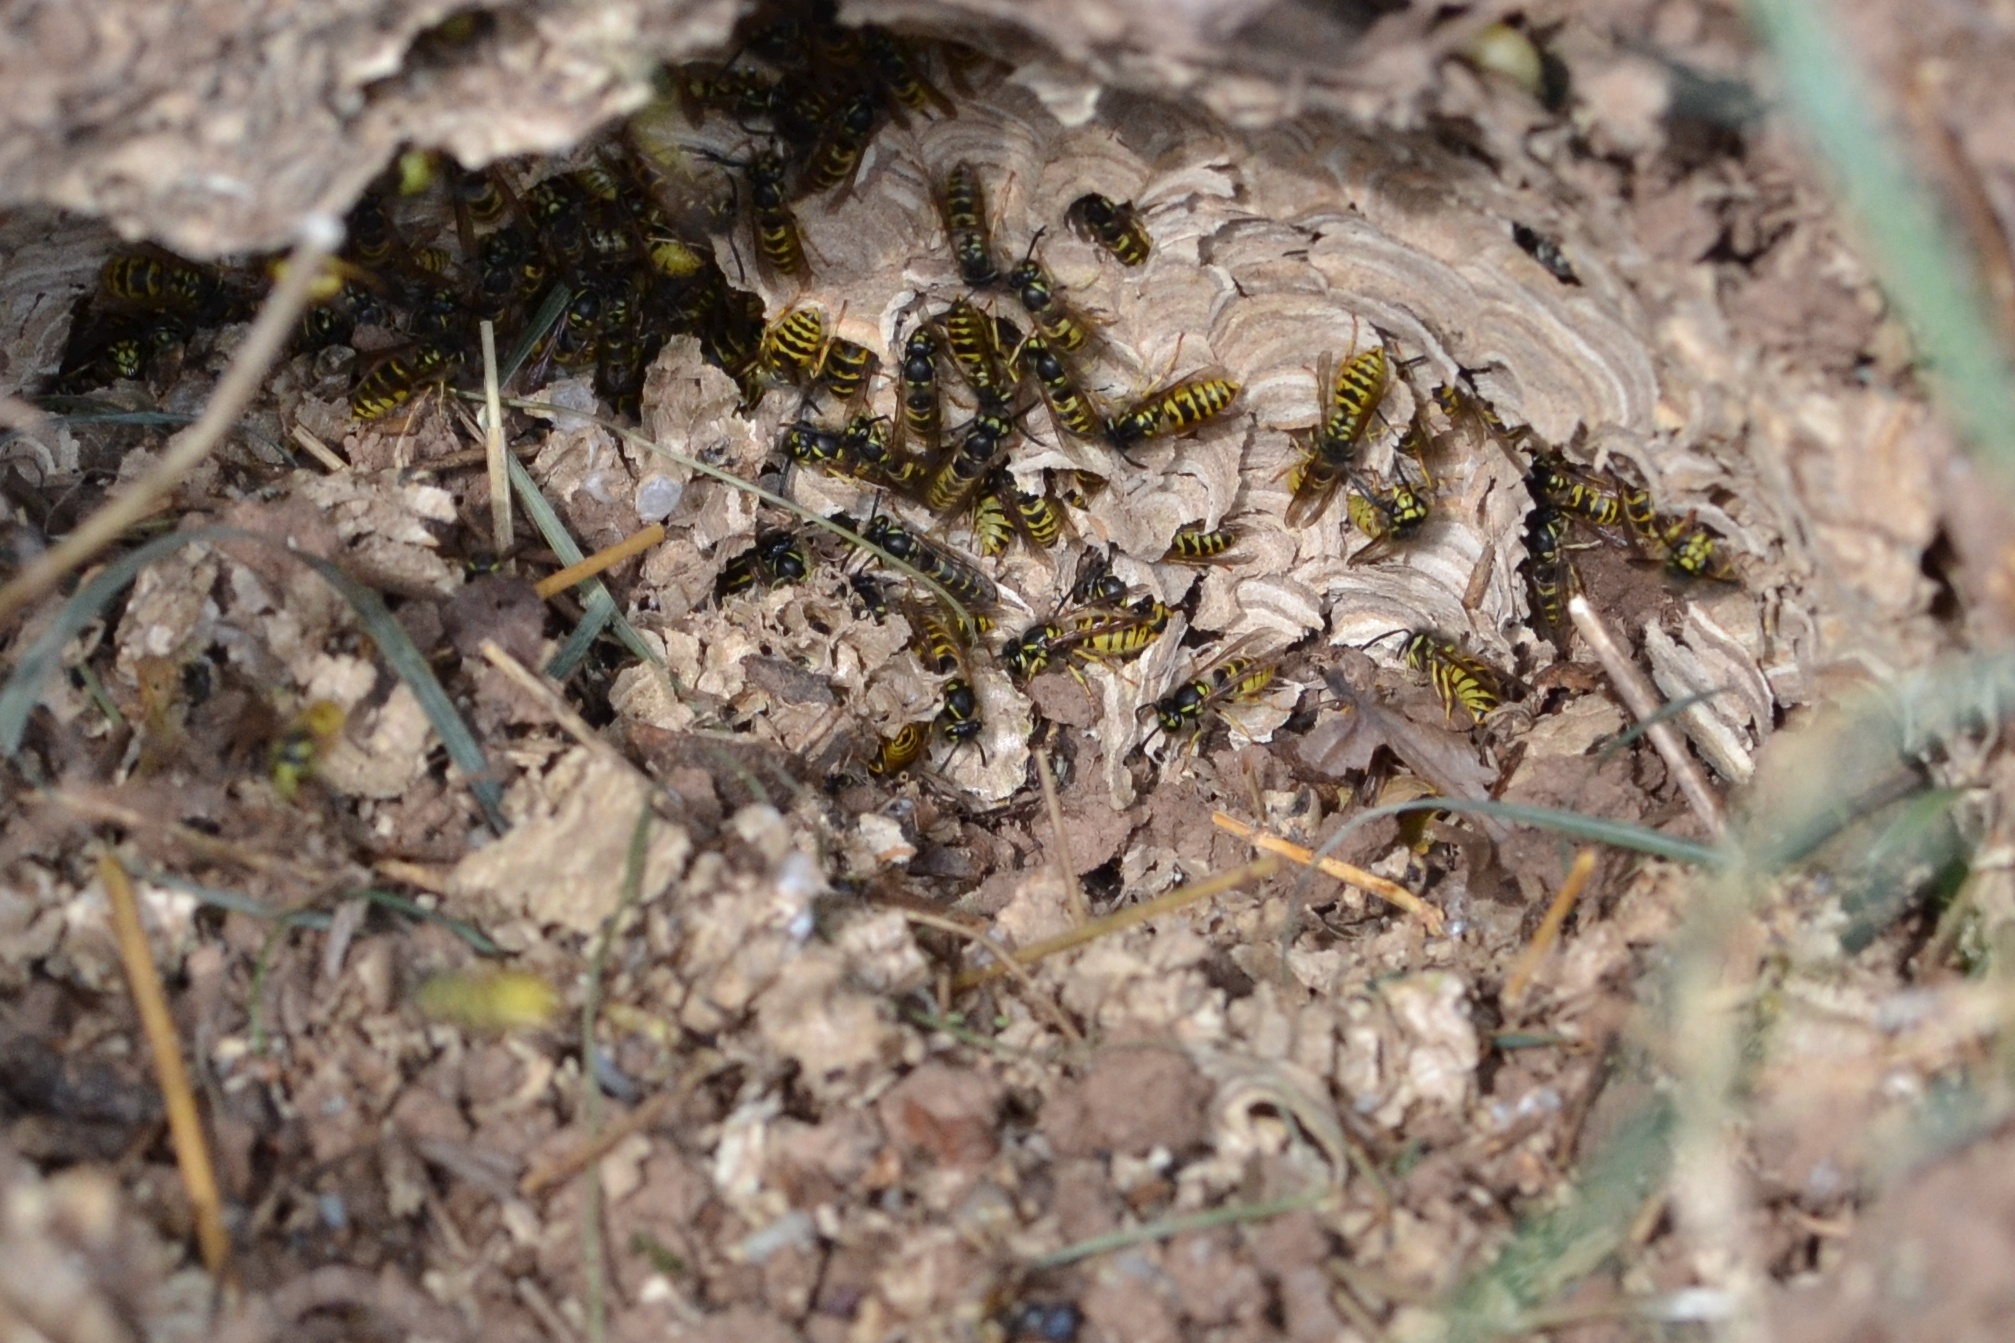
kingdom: Animalia
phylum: Arthropoda
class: Insecta
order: Hymenoptera
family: Vespidae
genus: Vespula
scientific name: Vespula vulgaris
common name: Common wasp
